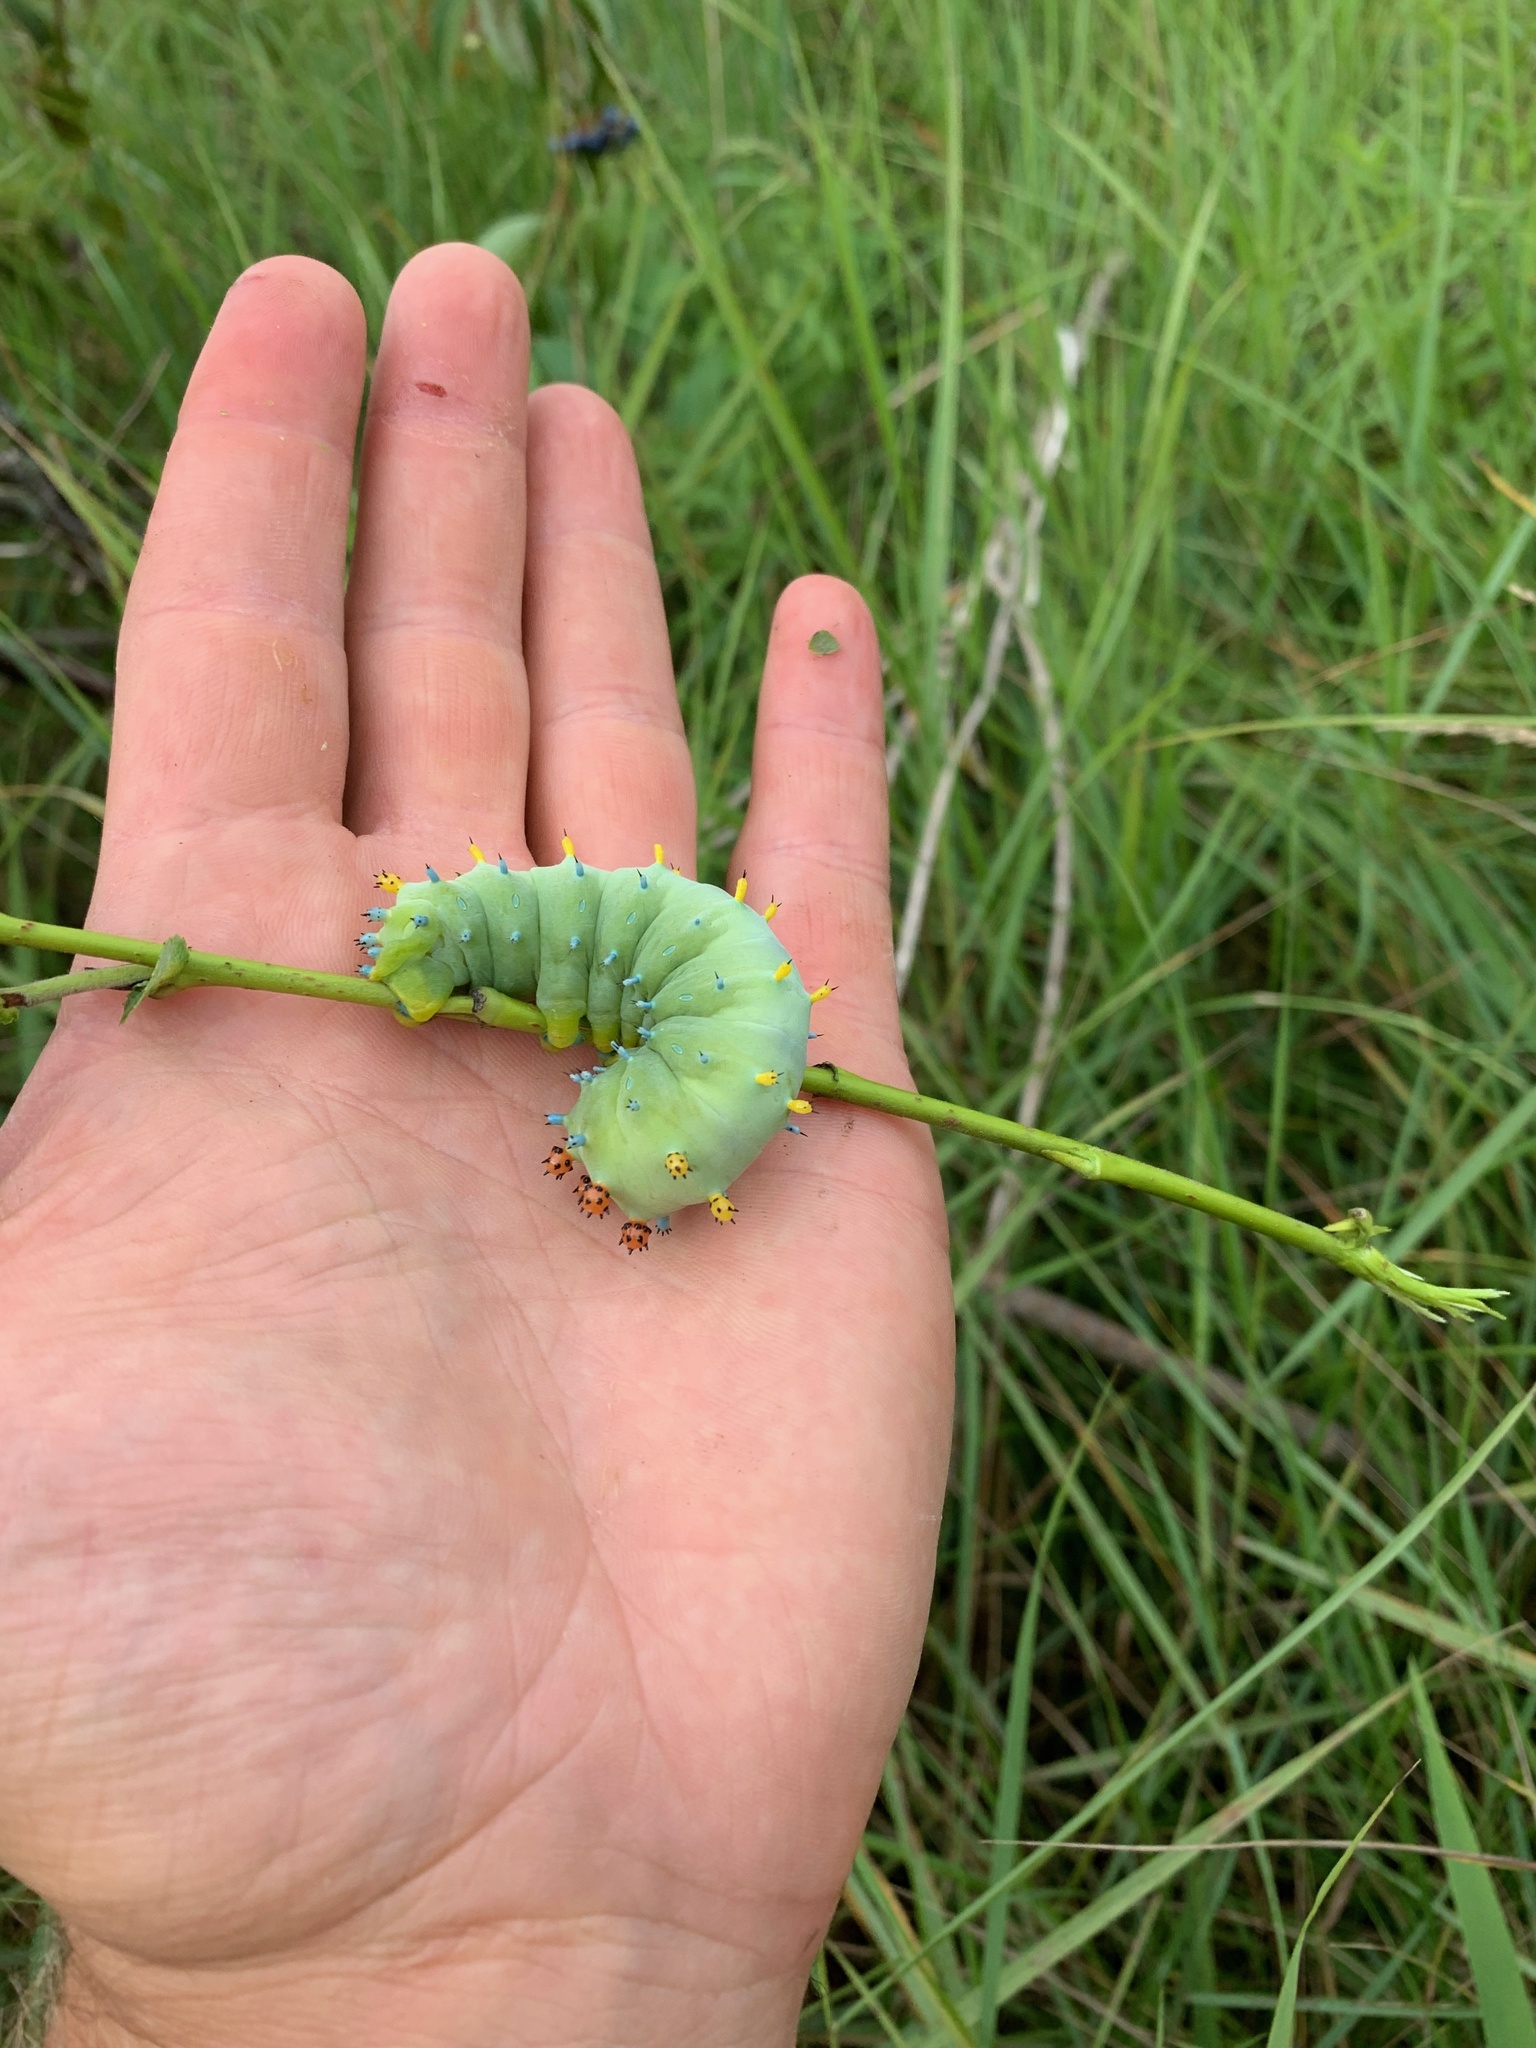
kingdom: Animalia
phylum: Arthropoda
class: Insecta
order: Lepidoptera
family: Saturniidae
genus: Hyalophora
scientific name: Hyalophora cecropia
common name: Cecropia silkmoth
